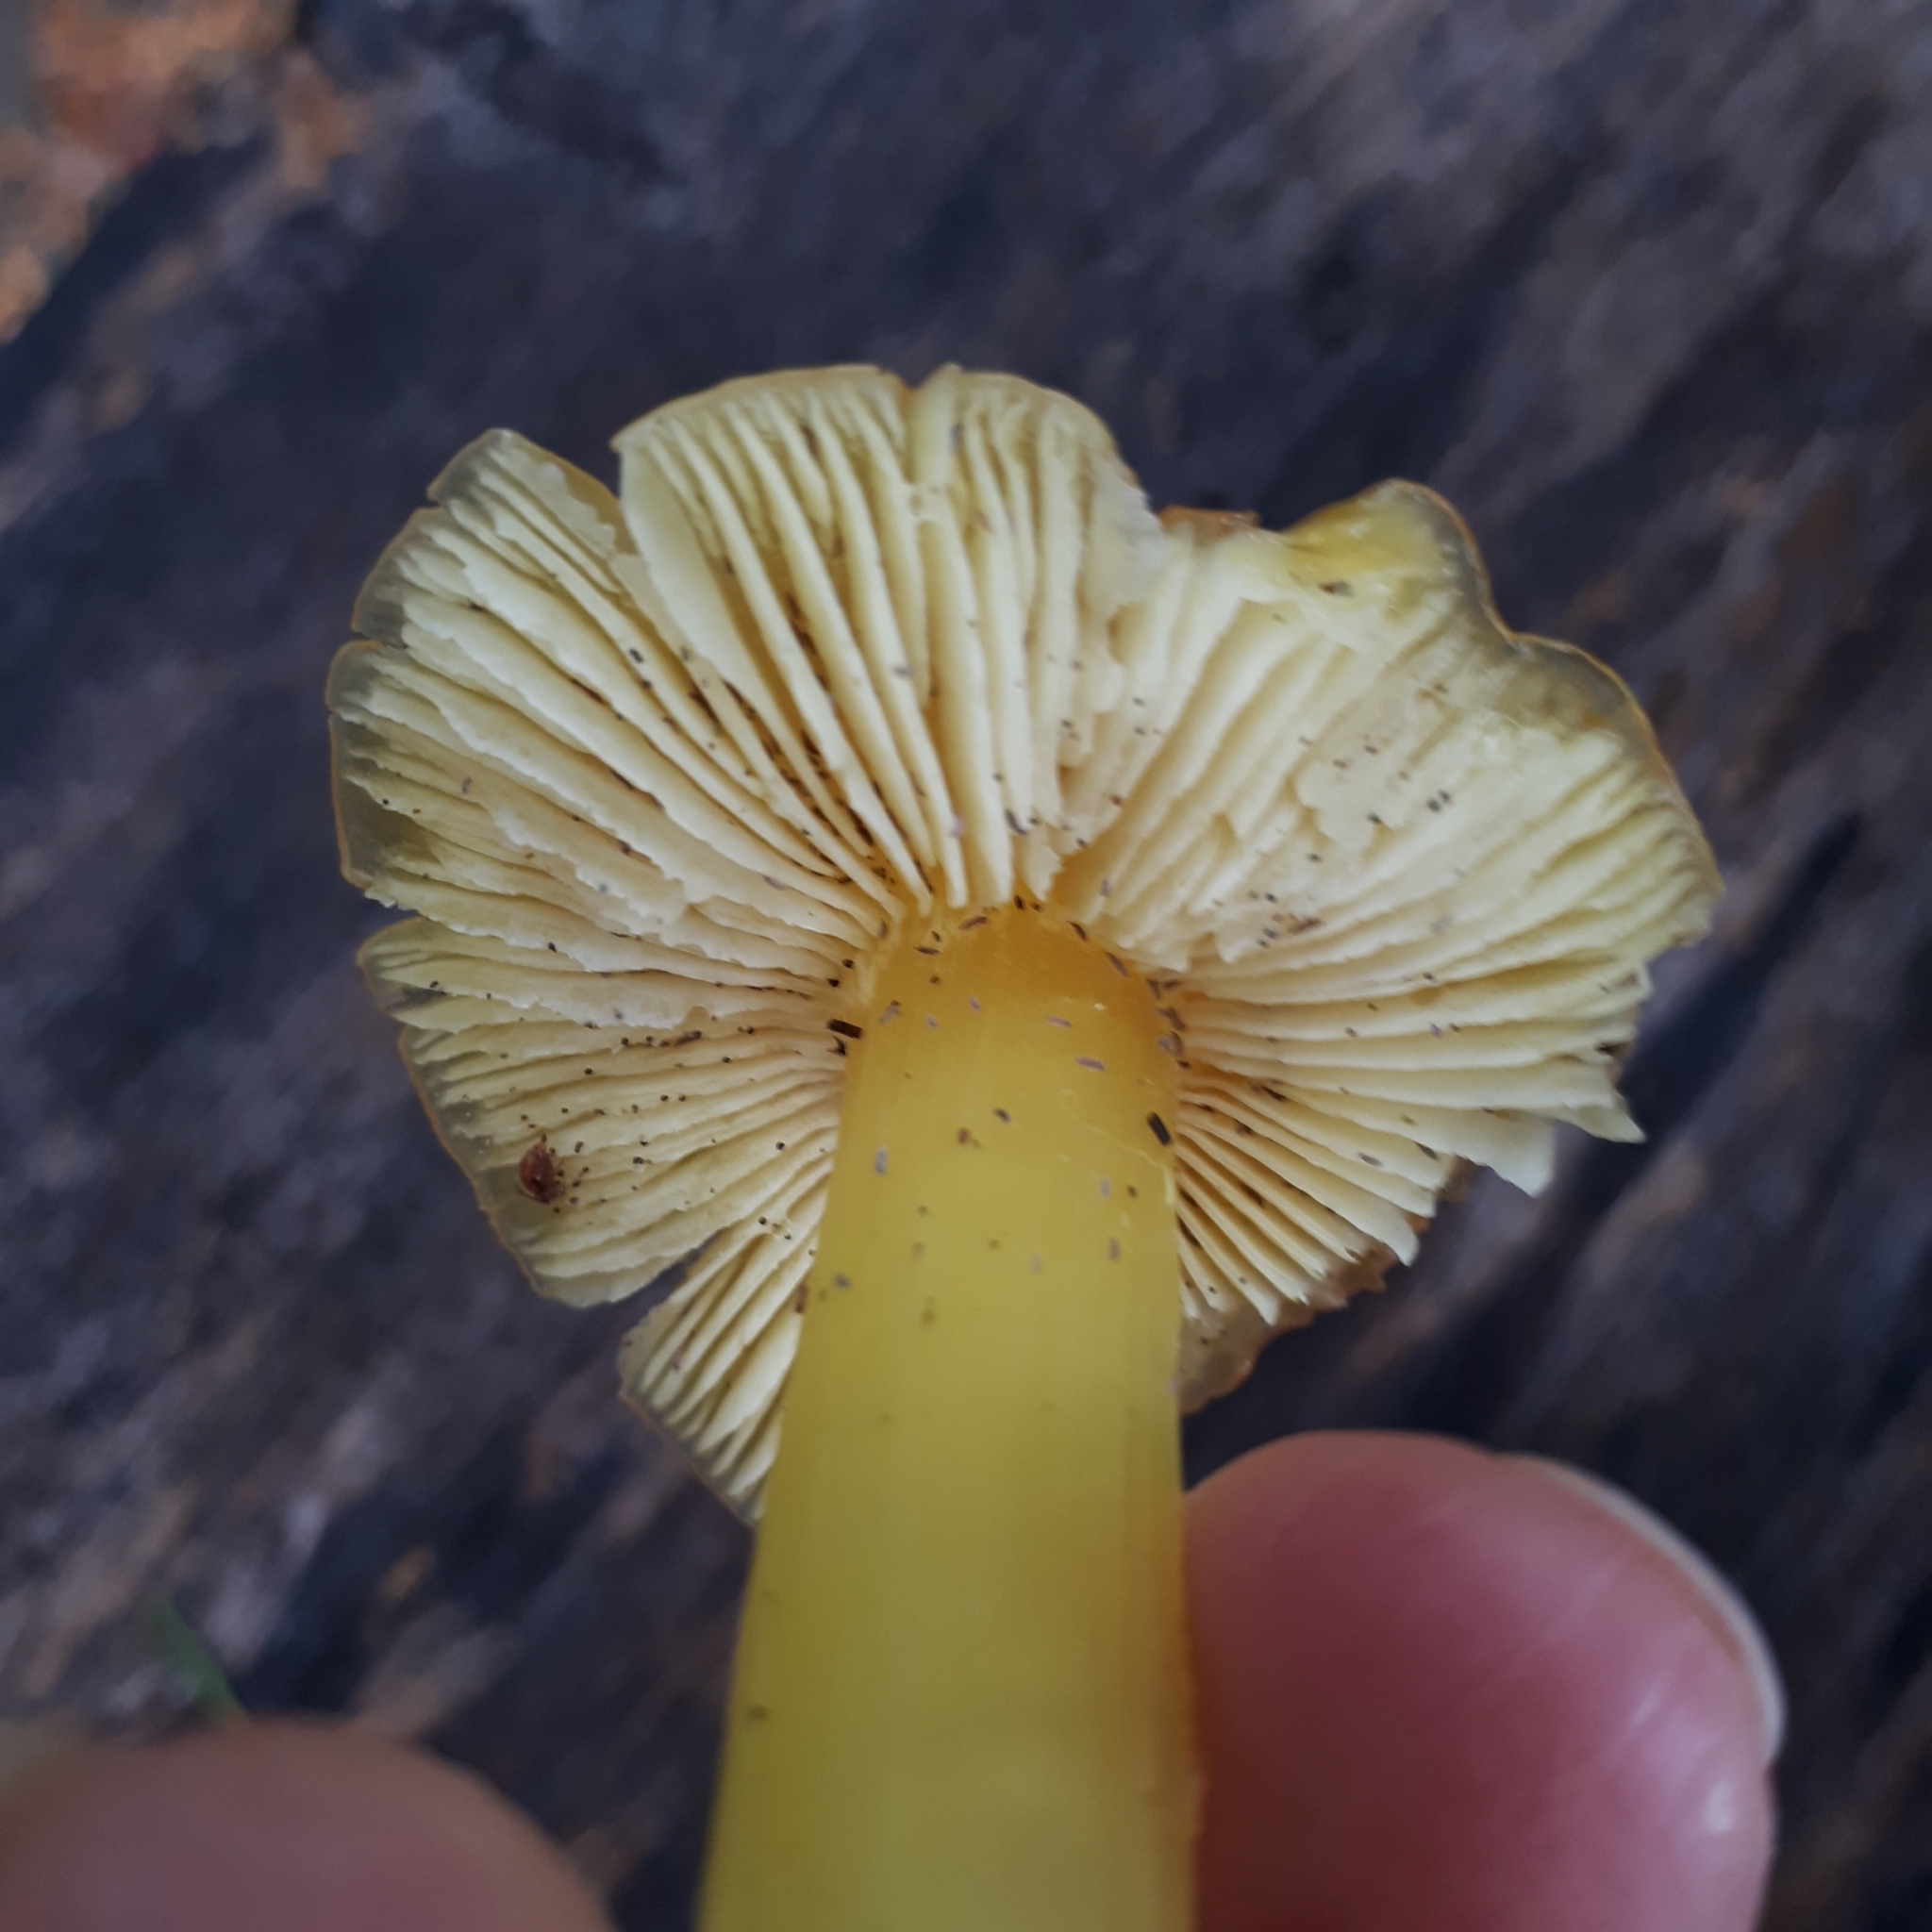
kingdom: Fungi
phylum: Basidiomycota
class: Agaricomycetes
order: Agaricales
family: Hygrophoraceae
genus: Hygrocybe
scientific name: Hygrocybe flavescens
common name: Golden waxy cap
